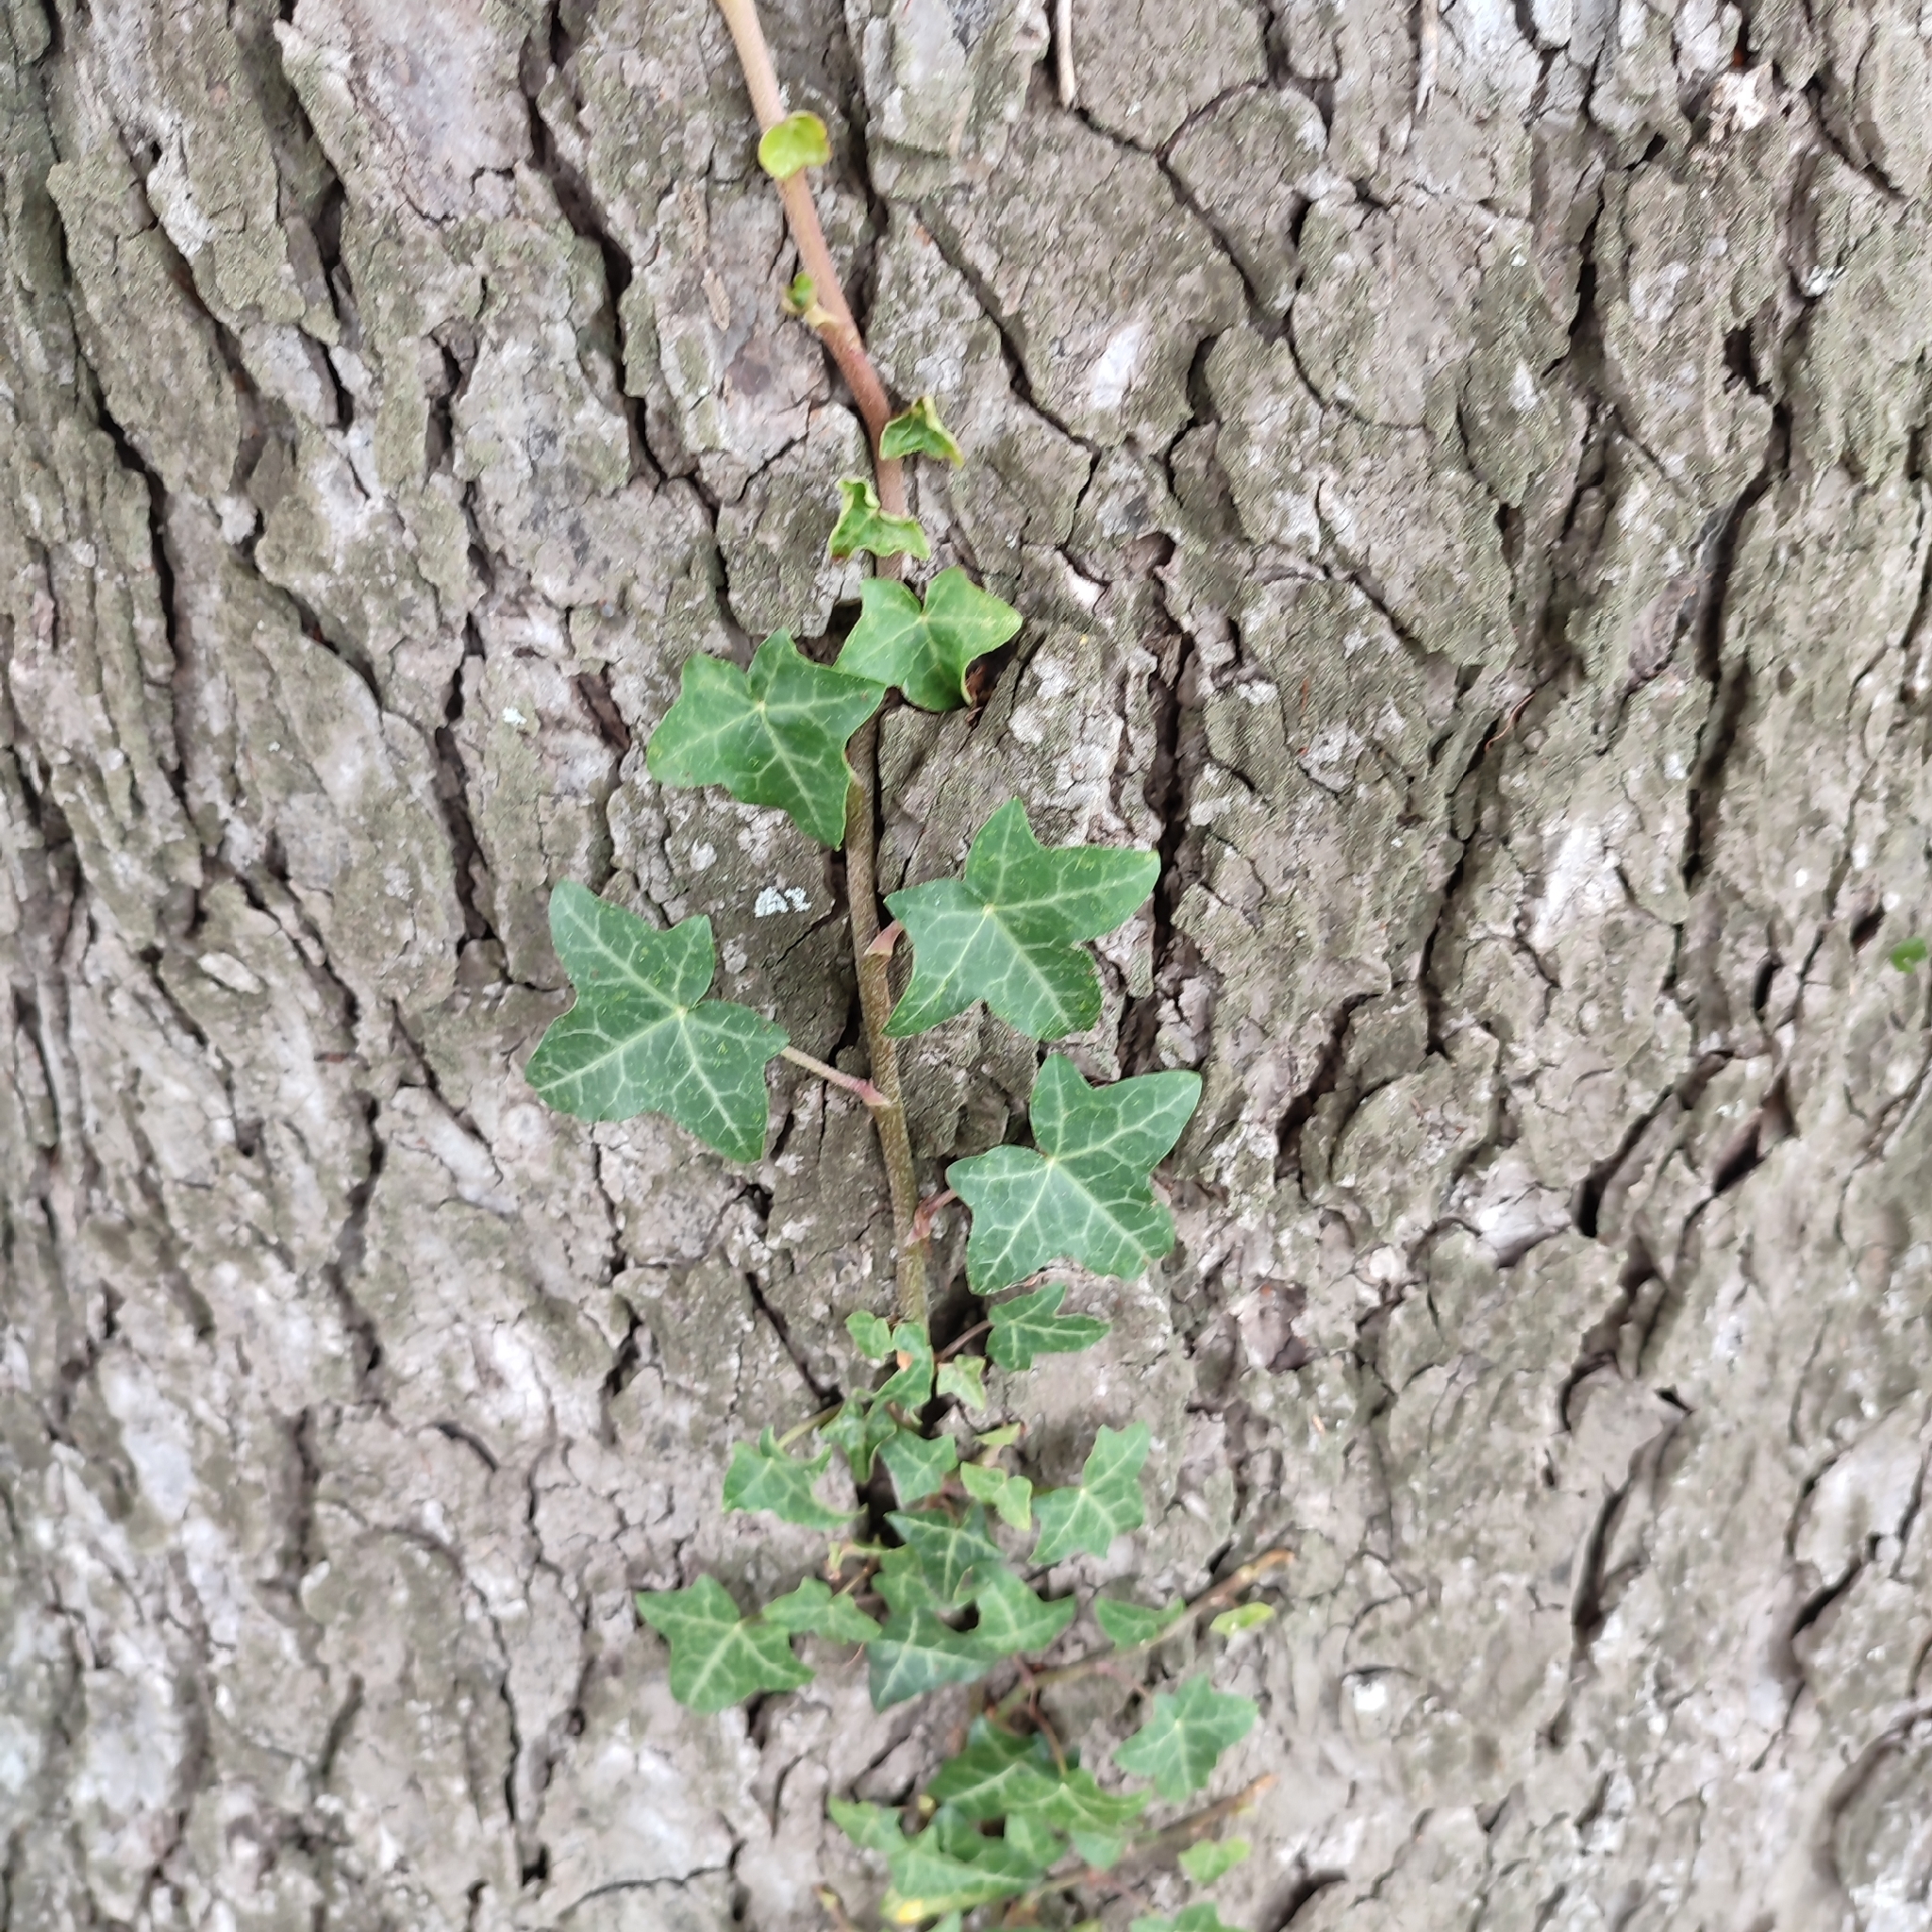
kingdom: Plantae
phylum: Tracheophyta
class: Magnoliopsida
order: Apiales
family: Araliaceae
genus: Hedera
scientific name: Hedera helix
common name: Ivy
